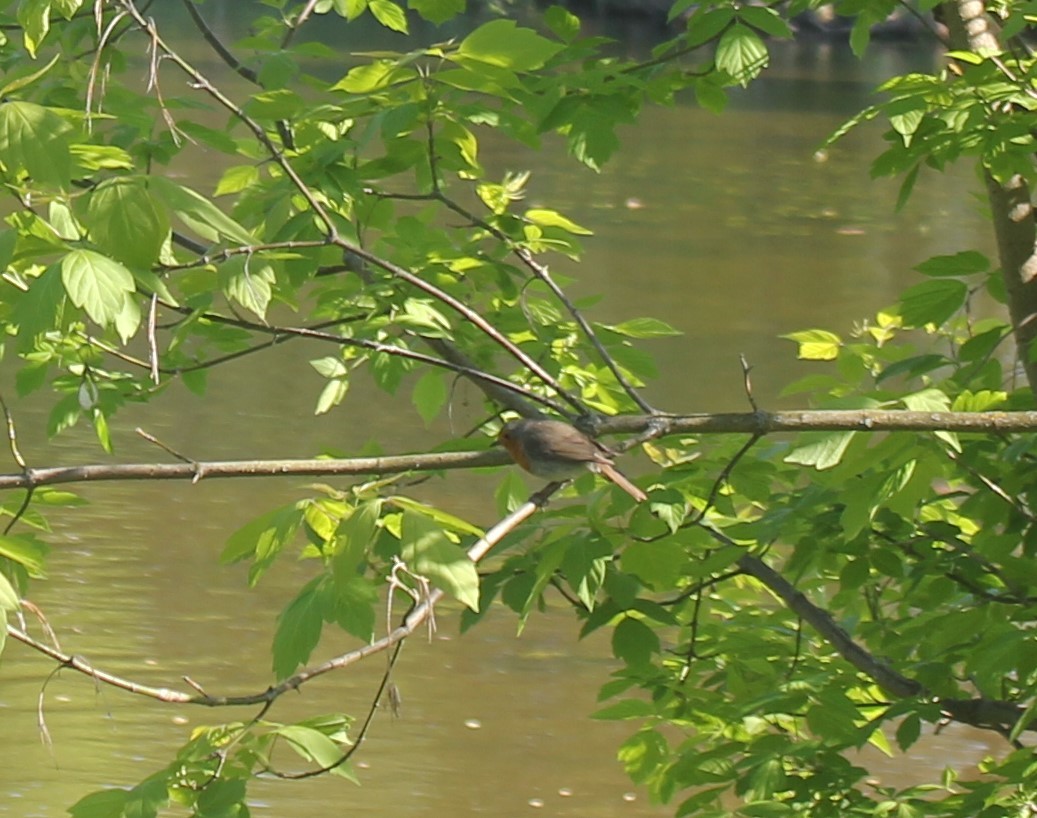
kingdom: Animalia
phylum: Chordata
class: Aves
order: Passeriformes
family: Muscicapidae
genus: Erithacus
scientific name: Erithacus rubecula
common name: European robin
